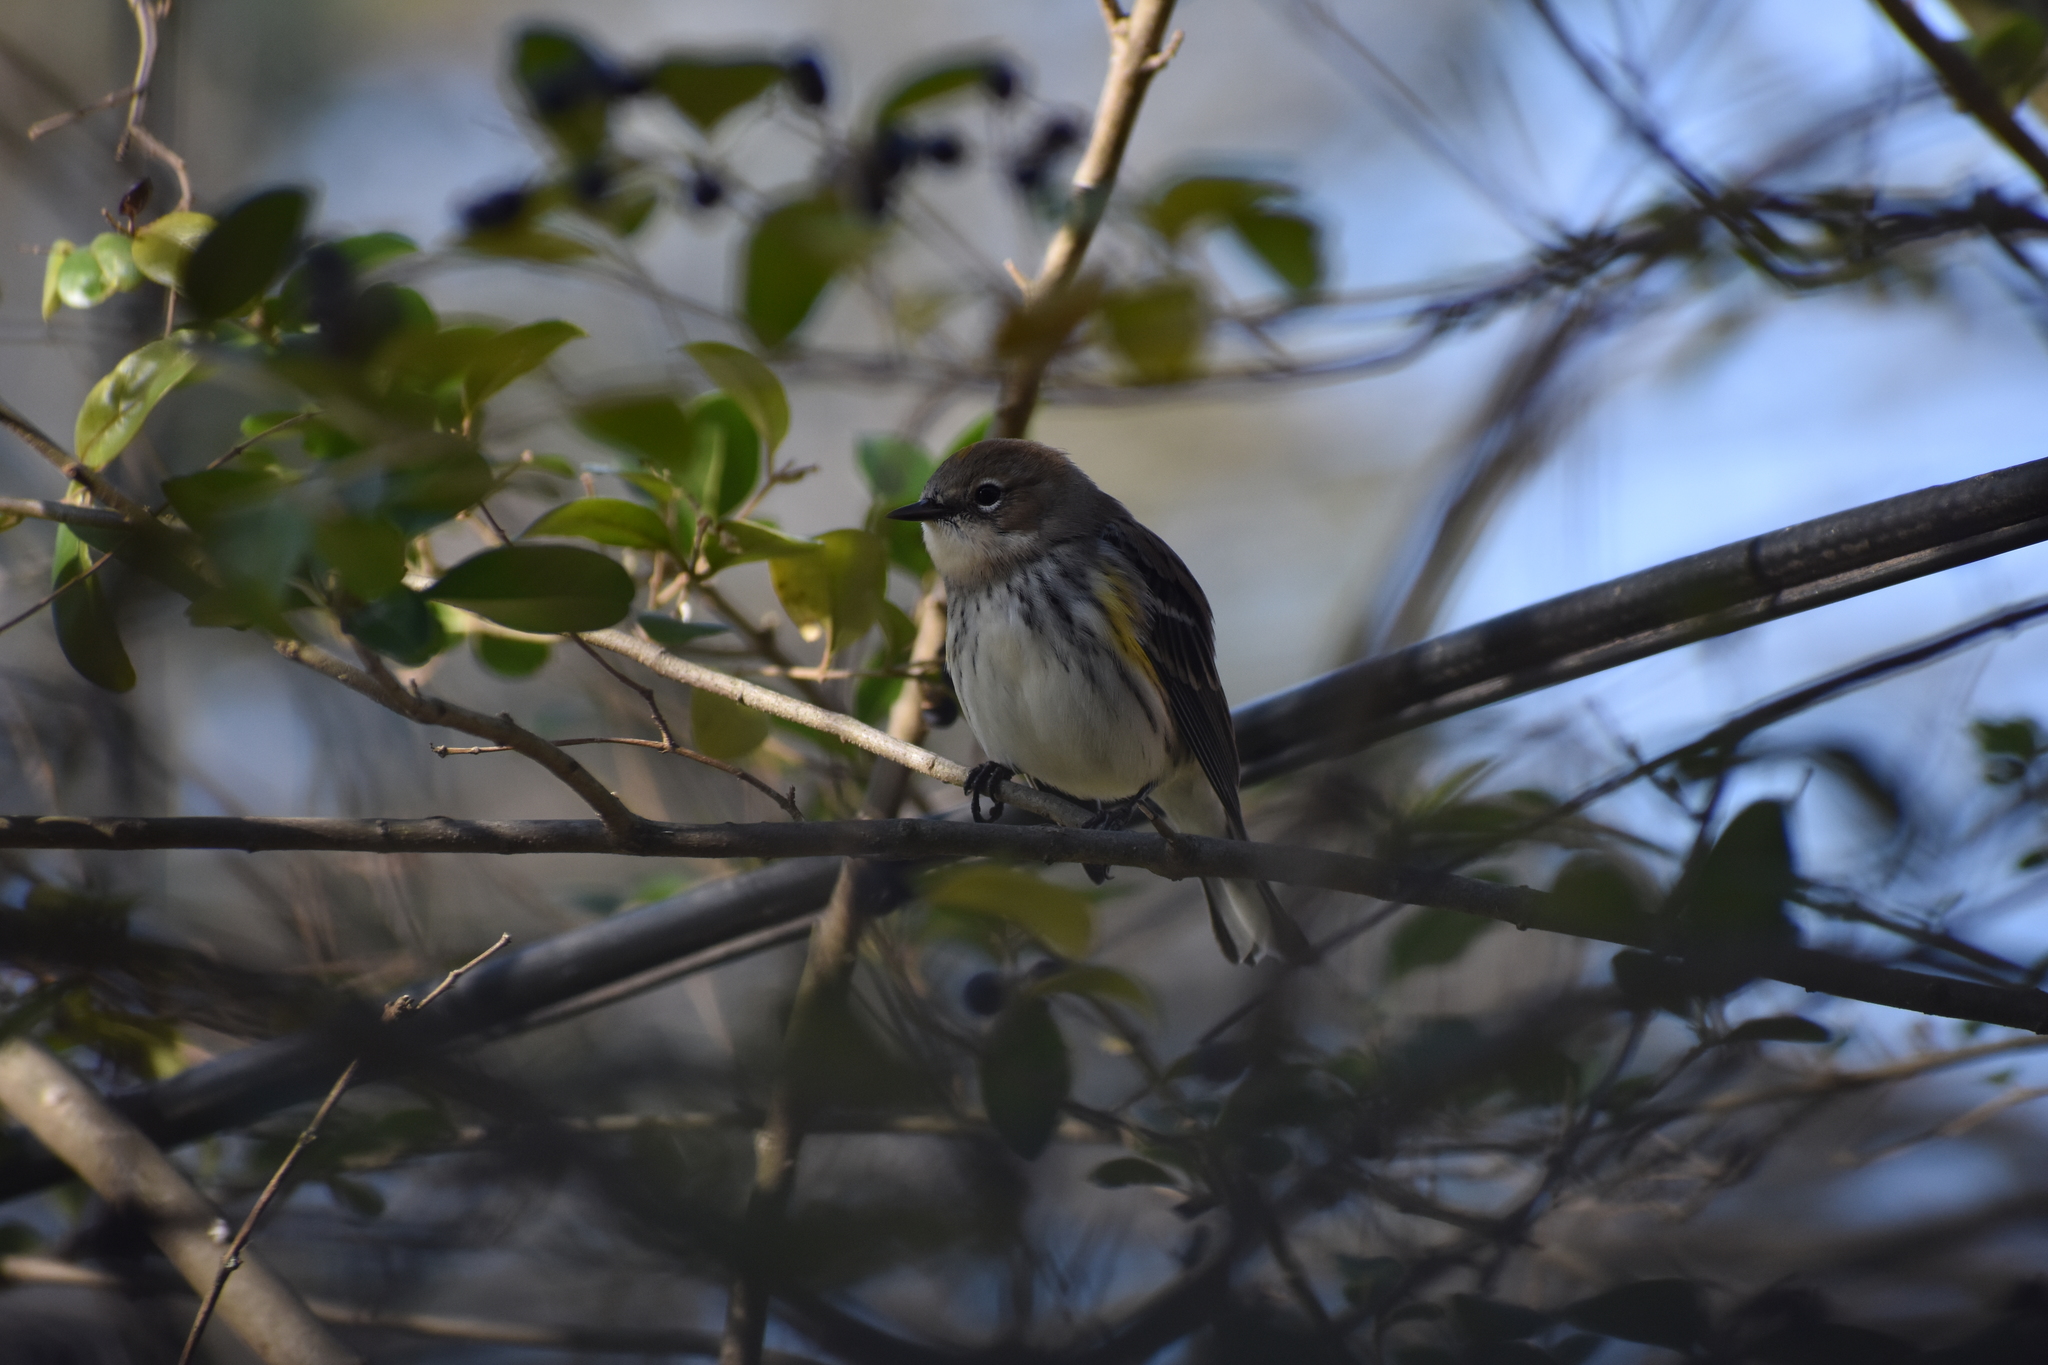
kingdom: Animalia
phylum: Chordata
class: Aves
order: Passeriformes
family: Parulidae
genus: Setophaga
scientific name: Setophaga coronata
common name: Myrtle warbler
